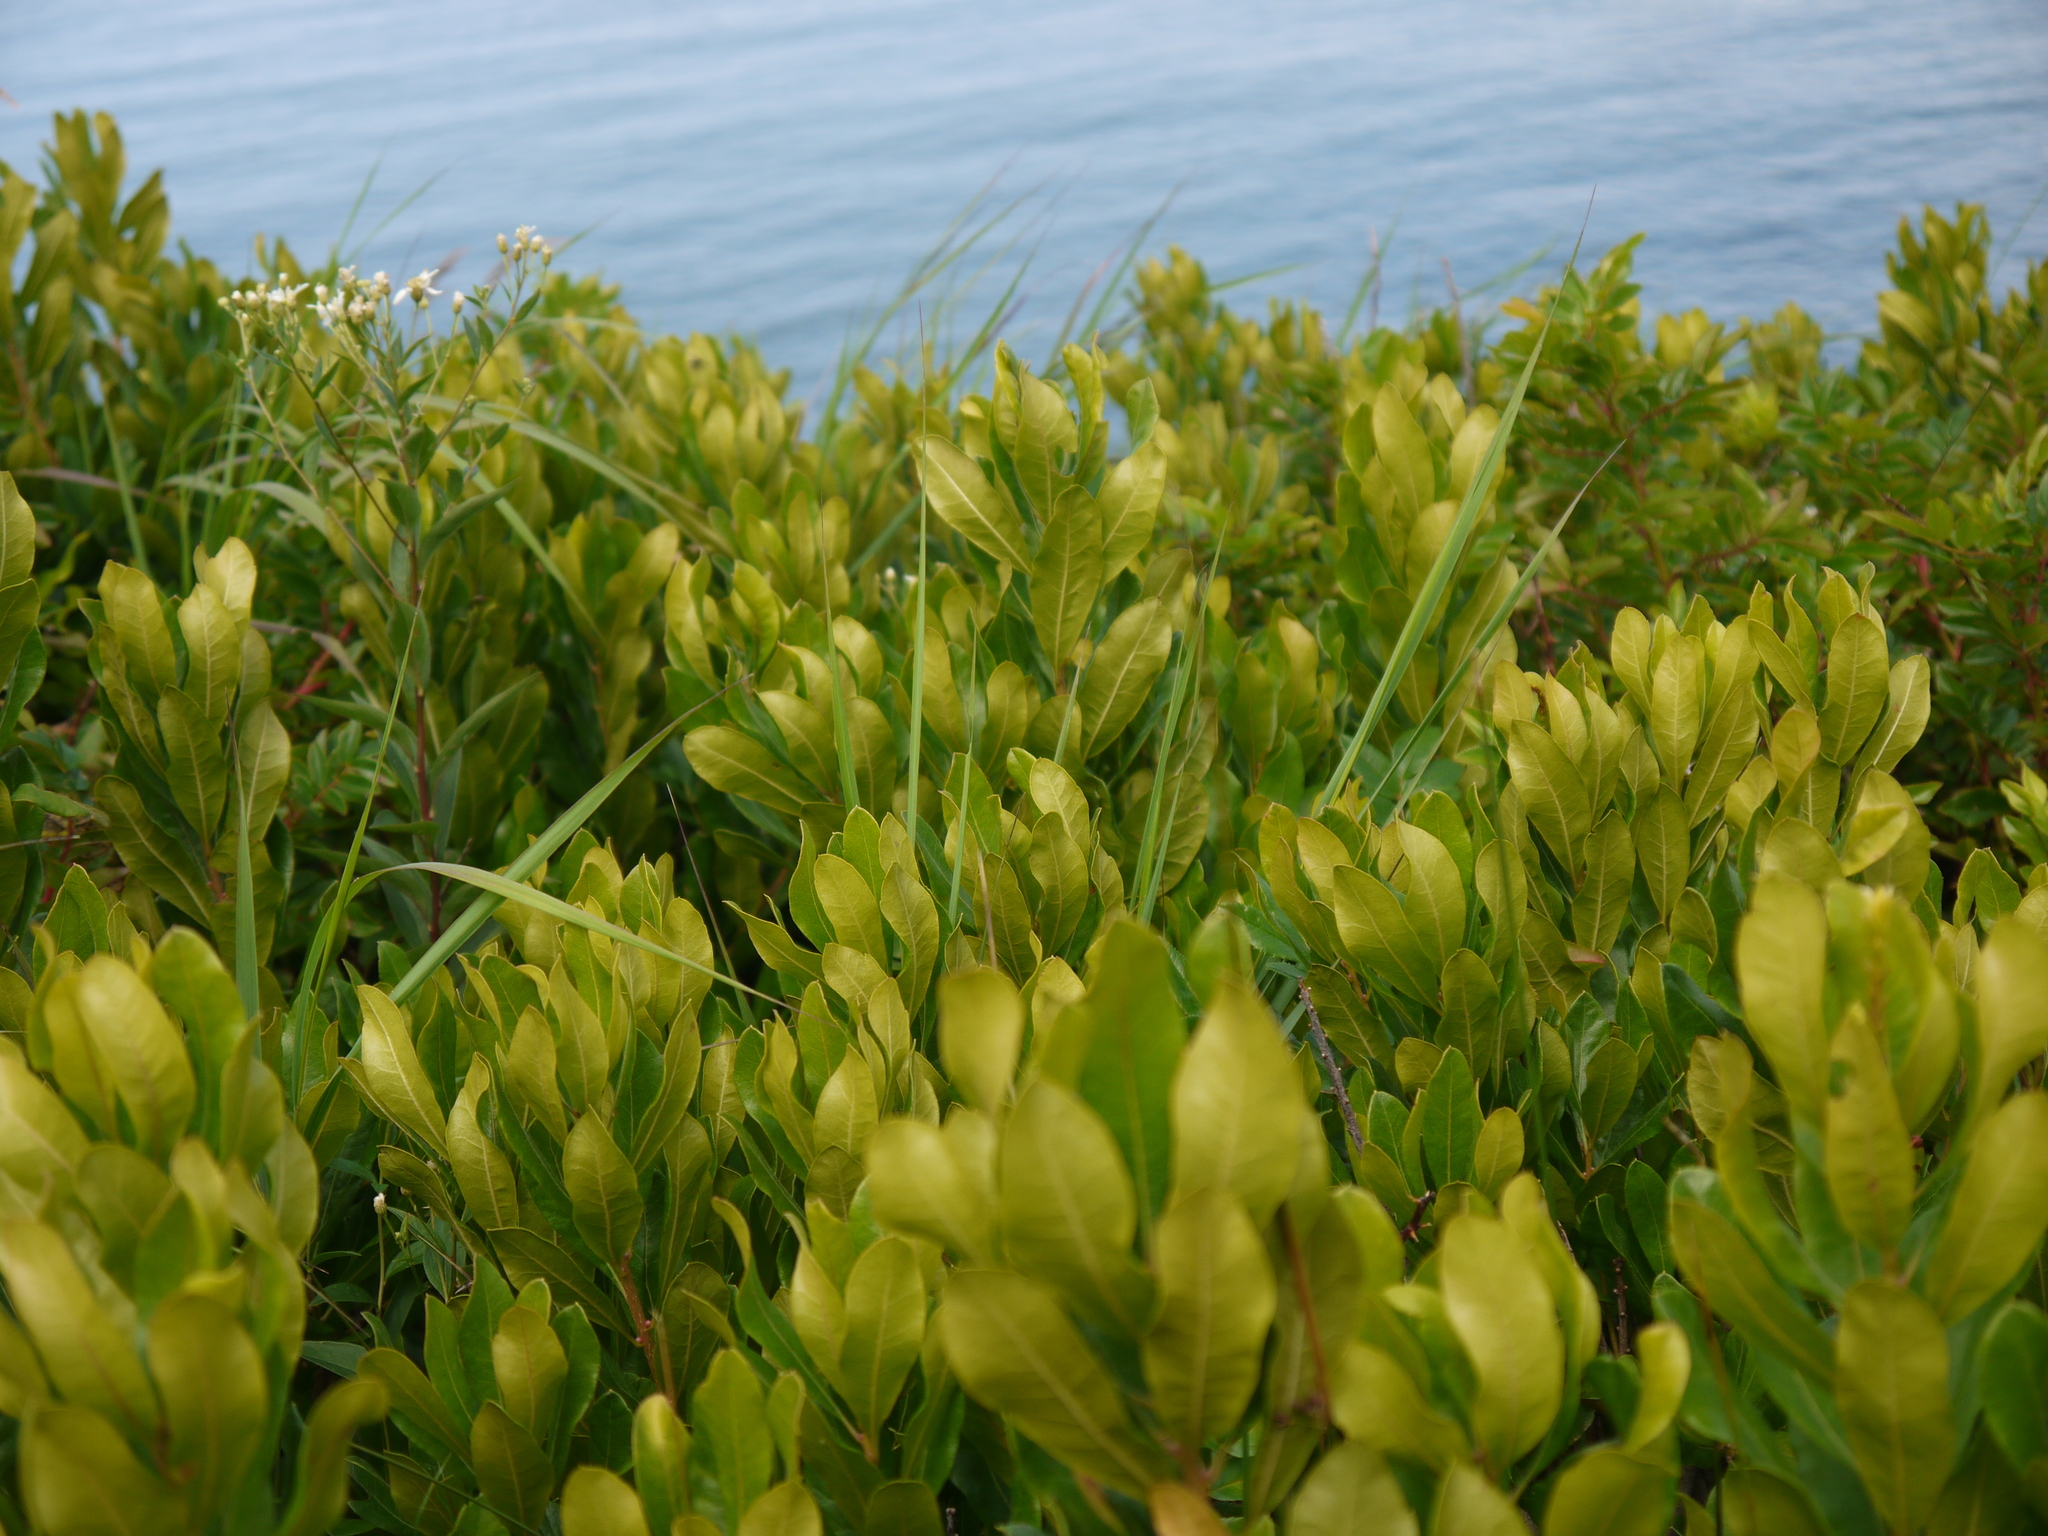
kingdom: Plantae
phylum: Tracheophyta
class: Magnoliopsida
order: Fagales
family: Myricaceae
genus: Morella
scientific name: Morella pensylvanica
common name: Northern bayberry
